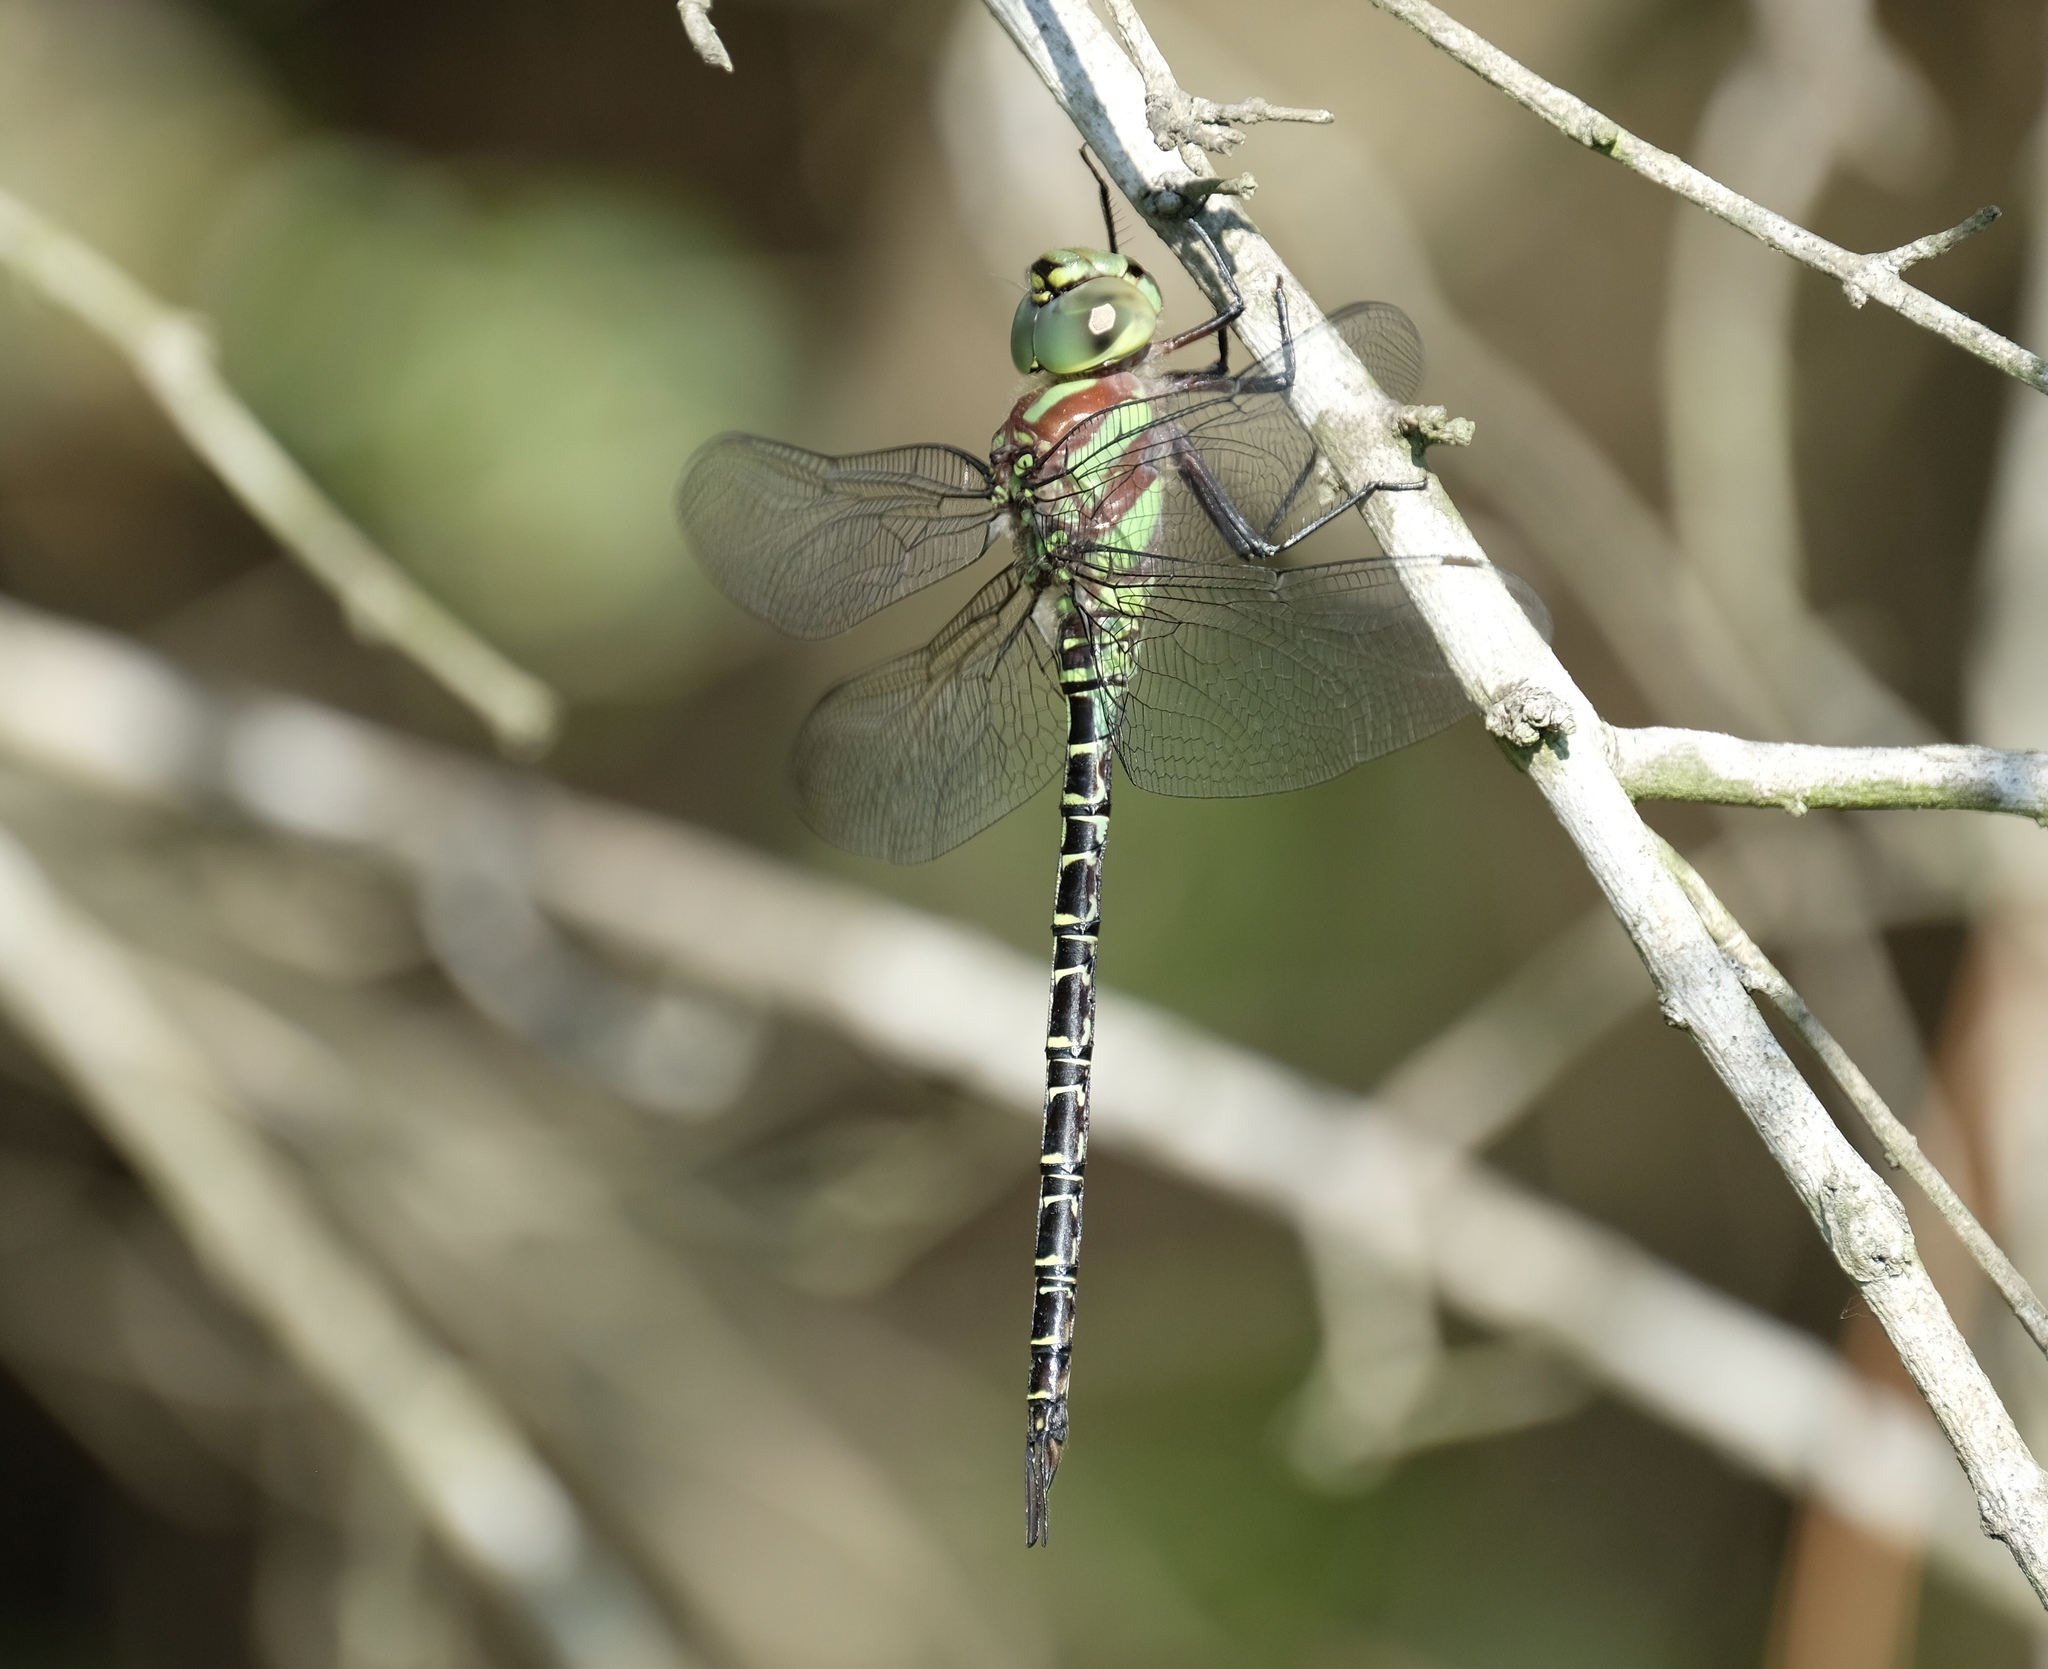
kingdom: Animalia
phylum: Arthropoda
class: Insecta
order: Odonata
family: Aeshnidae
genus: Coryphaeschna
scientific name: Coryphaeschna ingens
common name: Regal darner
